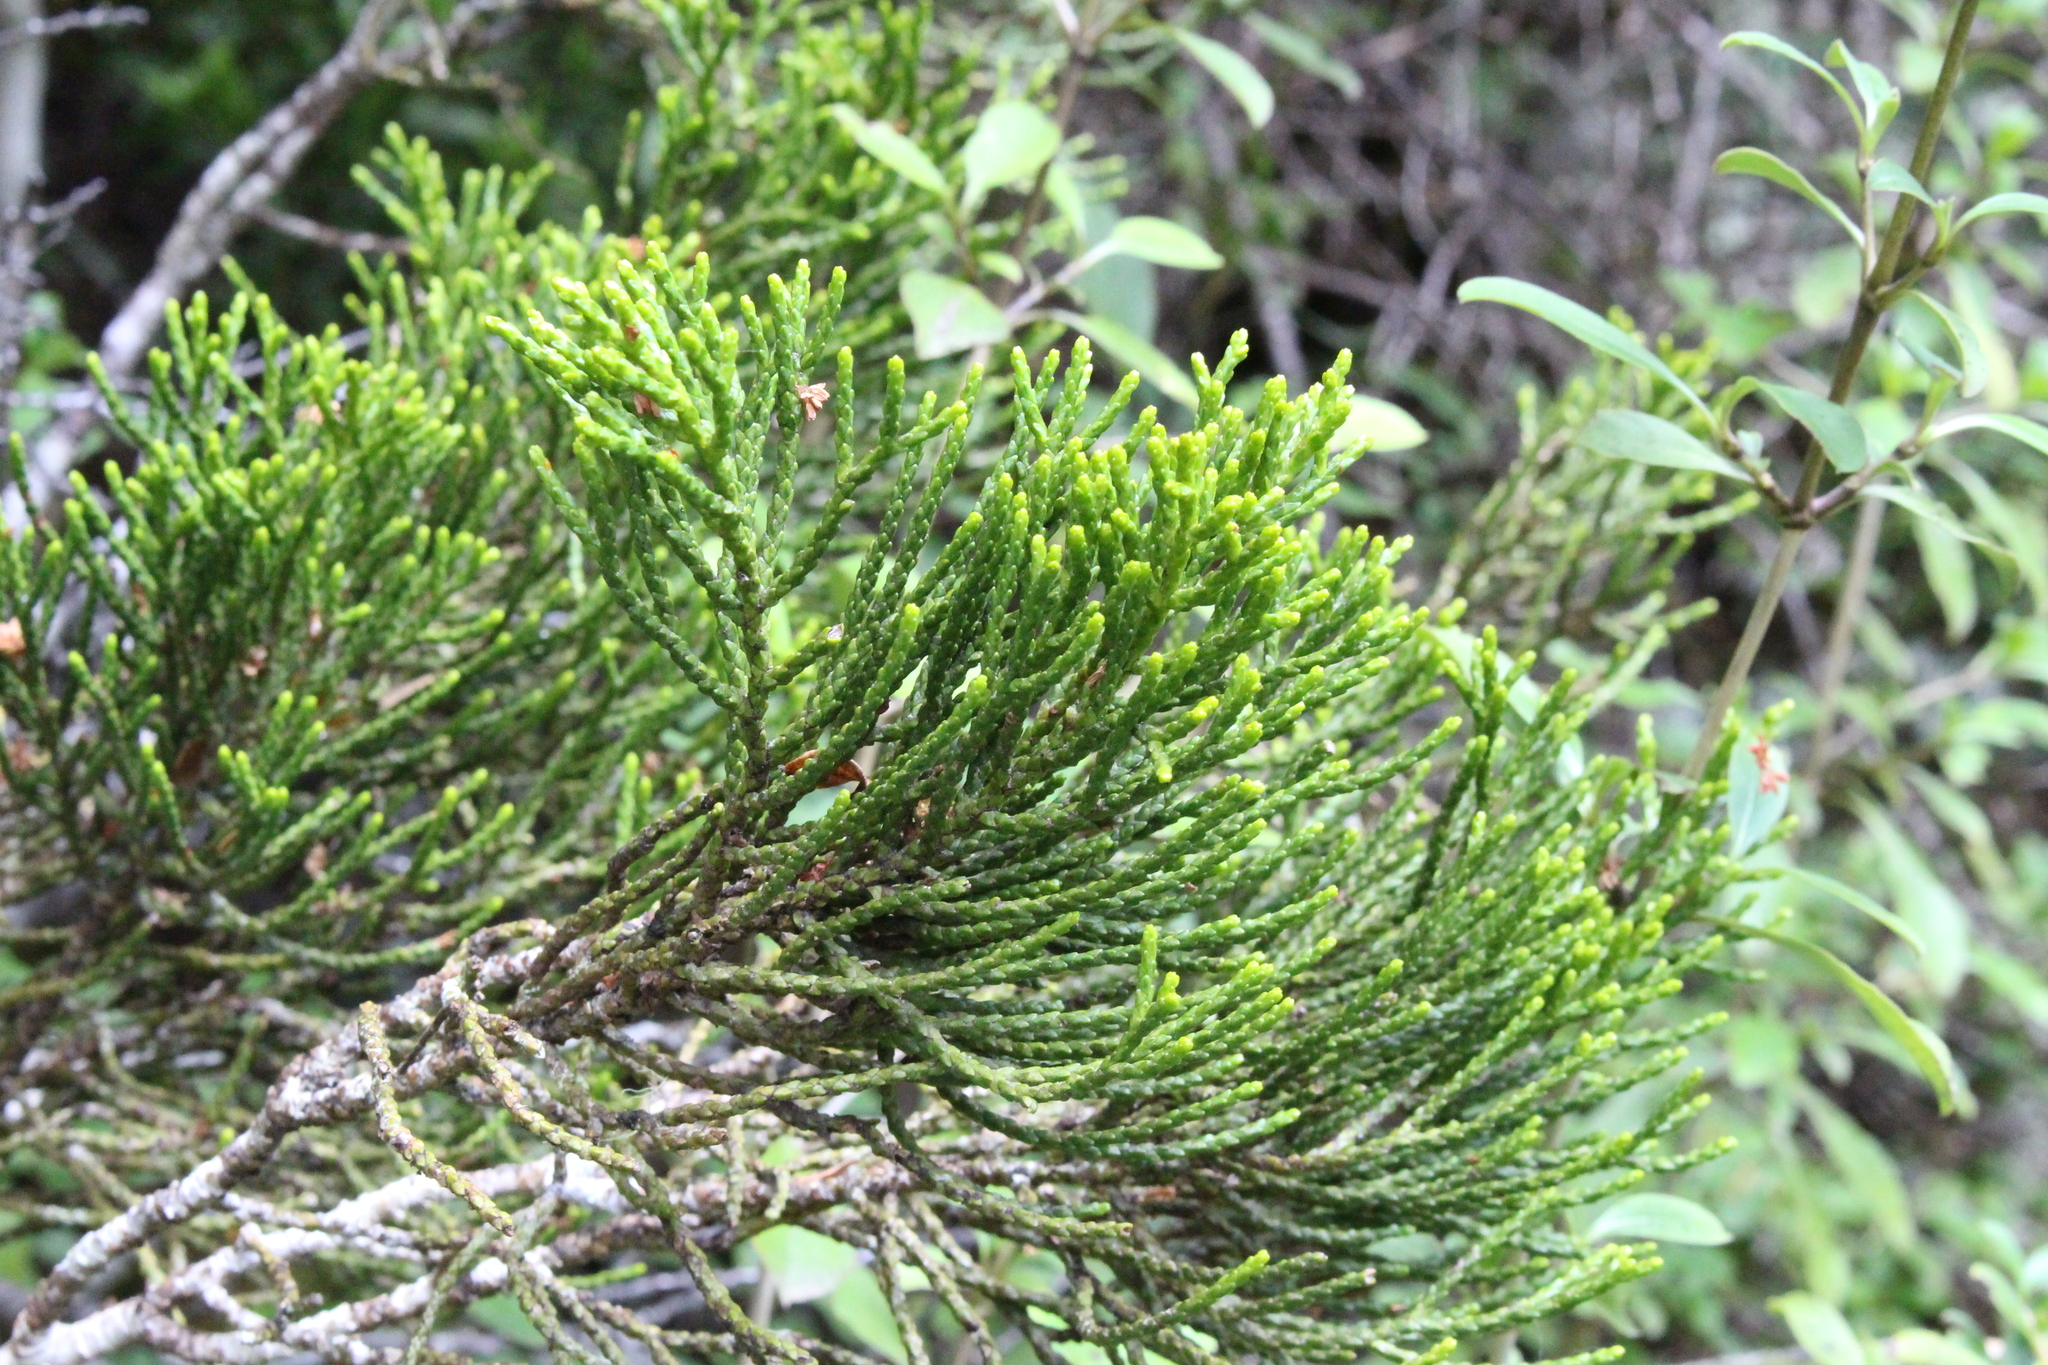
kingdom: Plantae
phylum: Tracheophyta
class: Pinopsida
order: Pinales
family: Podocarpaceae
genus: Halocarpus
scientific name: Halocarpus biformis
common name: Alpine tarwood
